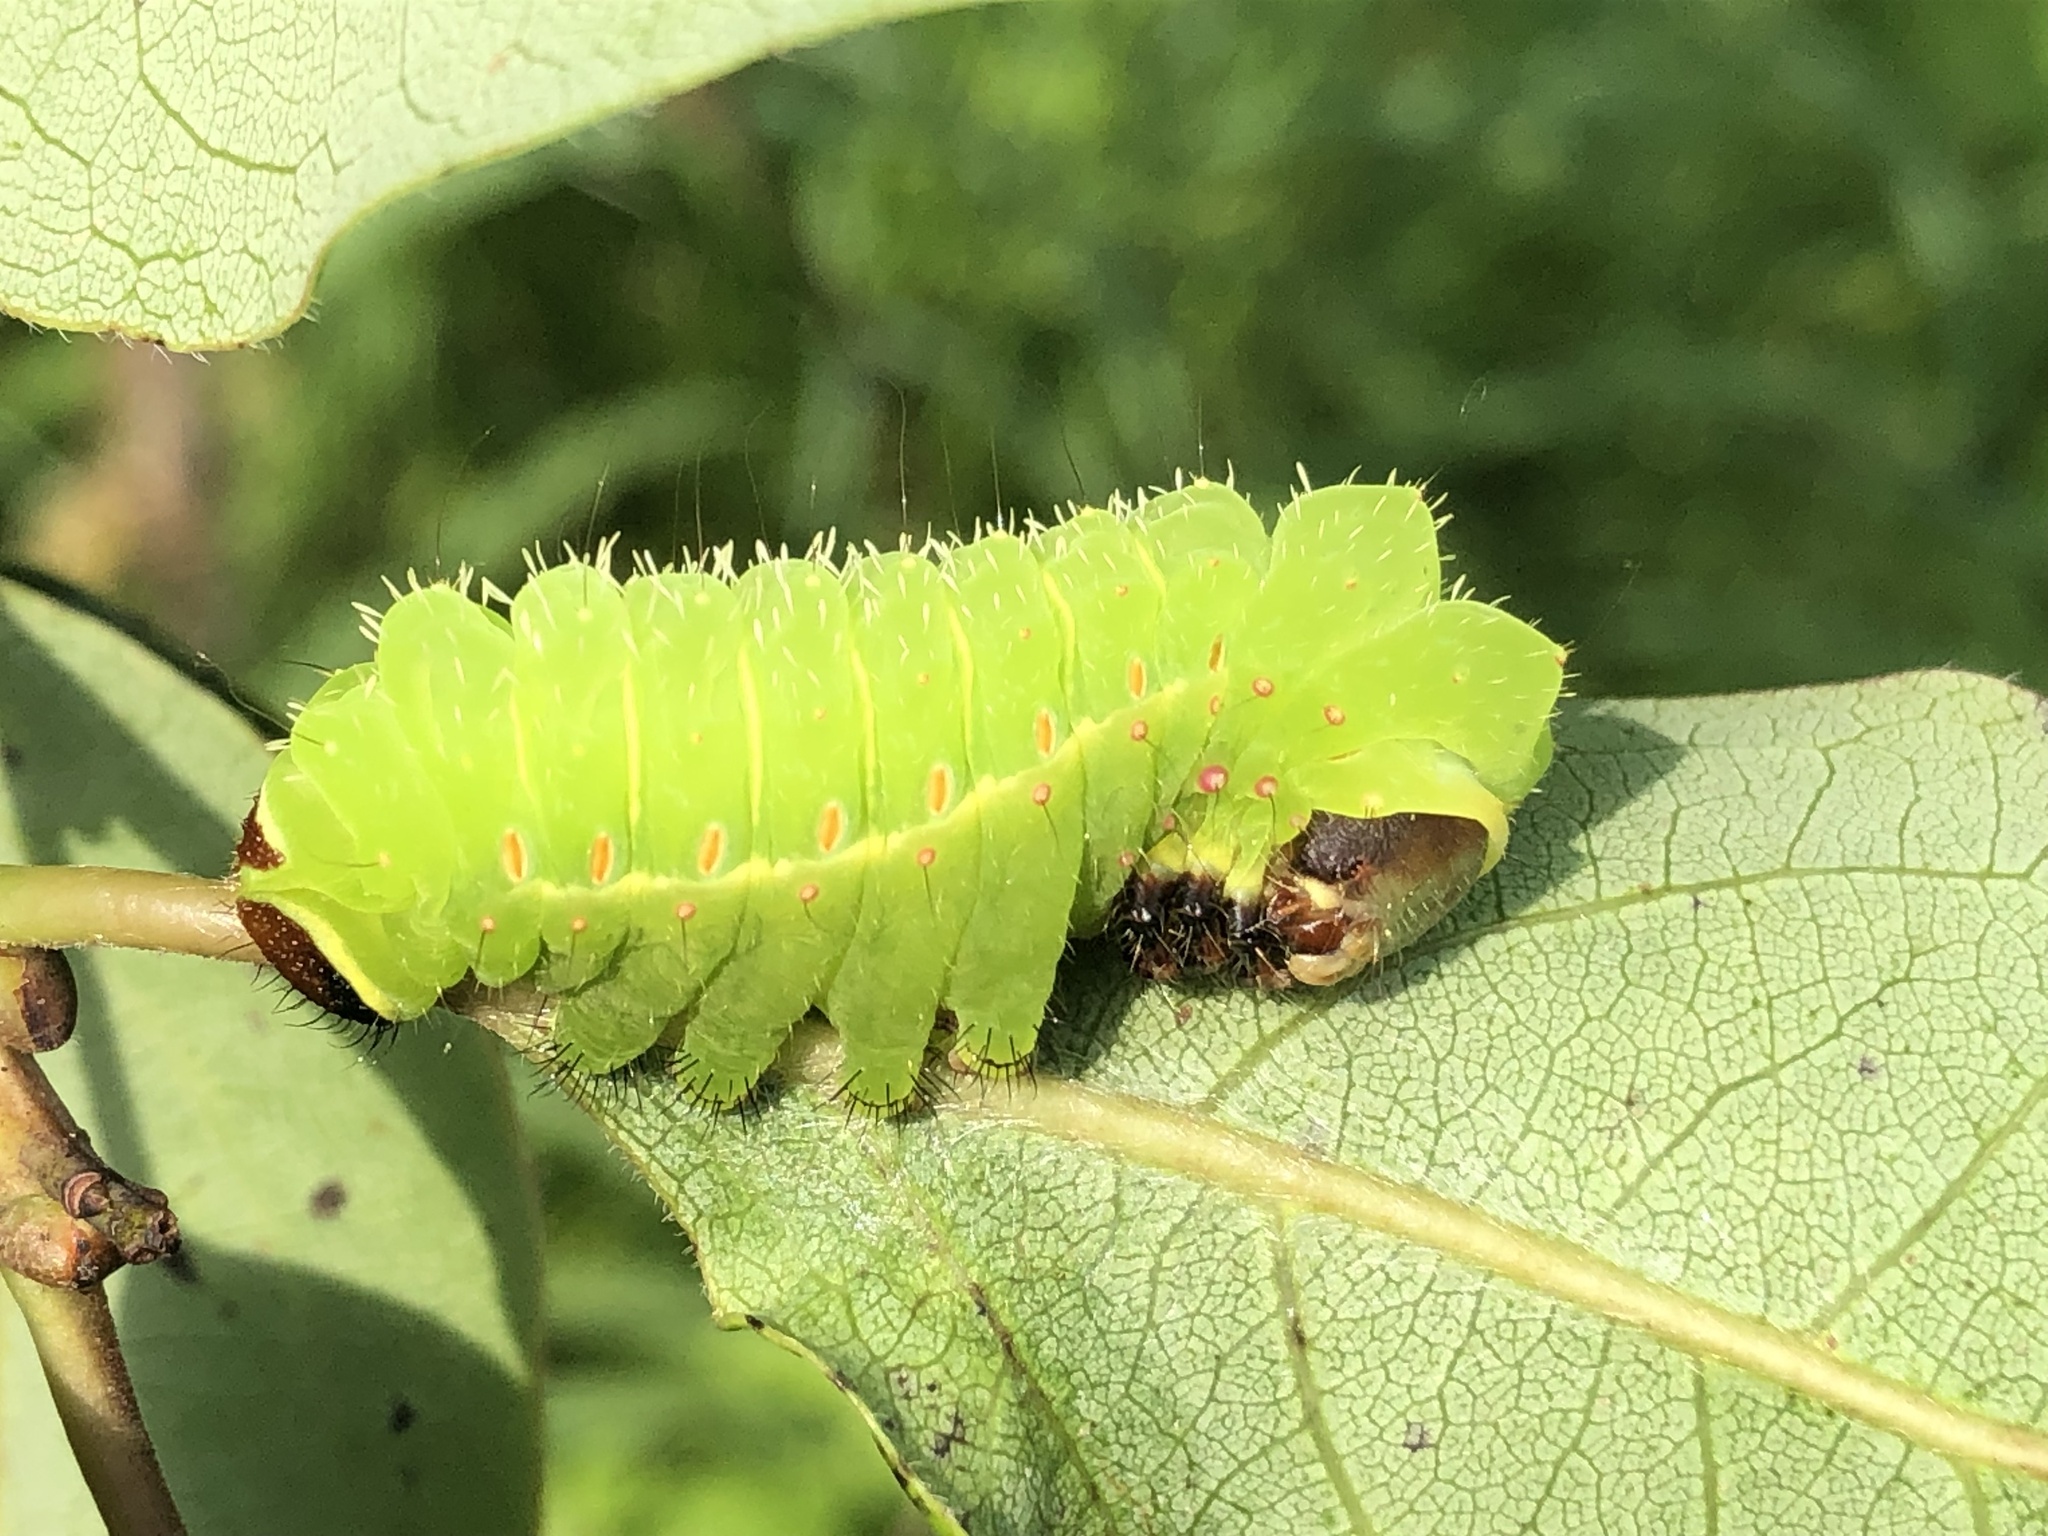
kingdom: Animalia
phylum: Arthropoda
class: Insecta
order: Lepidoptera
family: Saturniidae
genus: Actias
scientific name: Actias luna
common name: Luna moth
